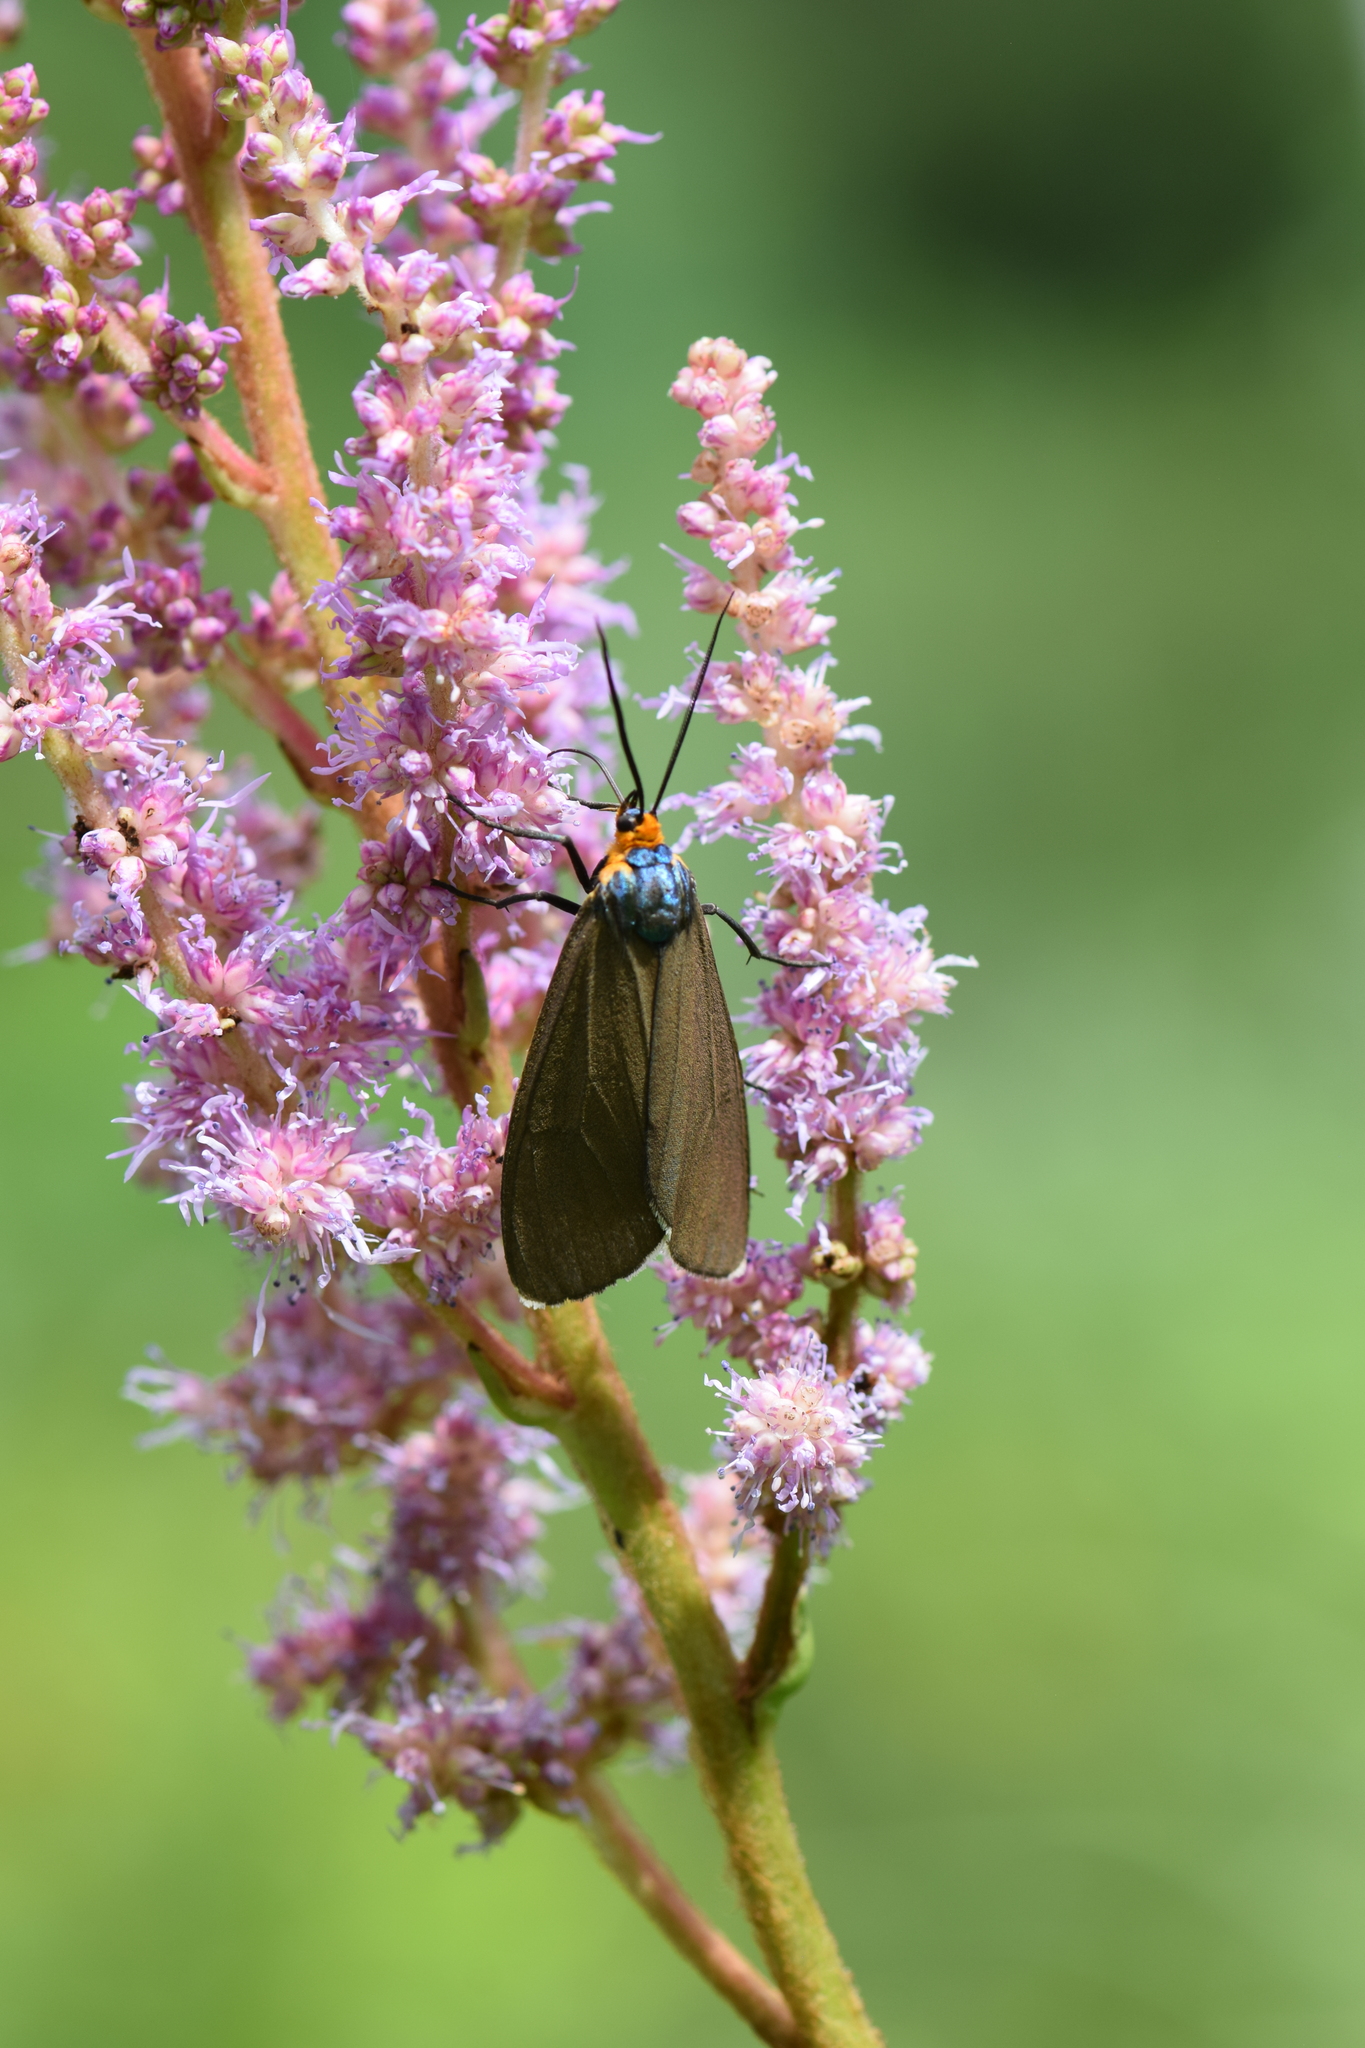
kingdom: Animalia
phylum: Arthropoda
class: Insecta
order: Lepidoptera
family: Erebidae
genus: Ctenucha
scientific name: Ctenucha virginica
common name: Virginia ctenucha moth
